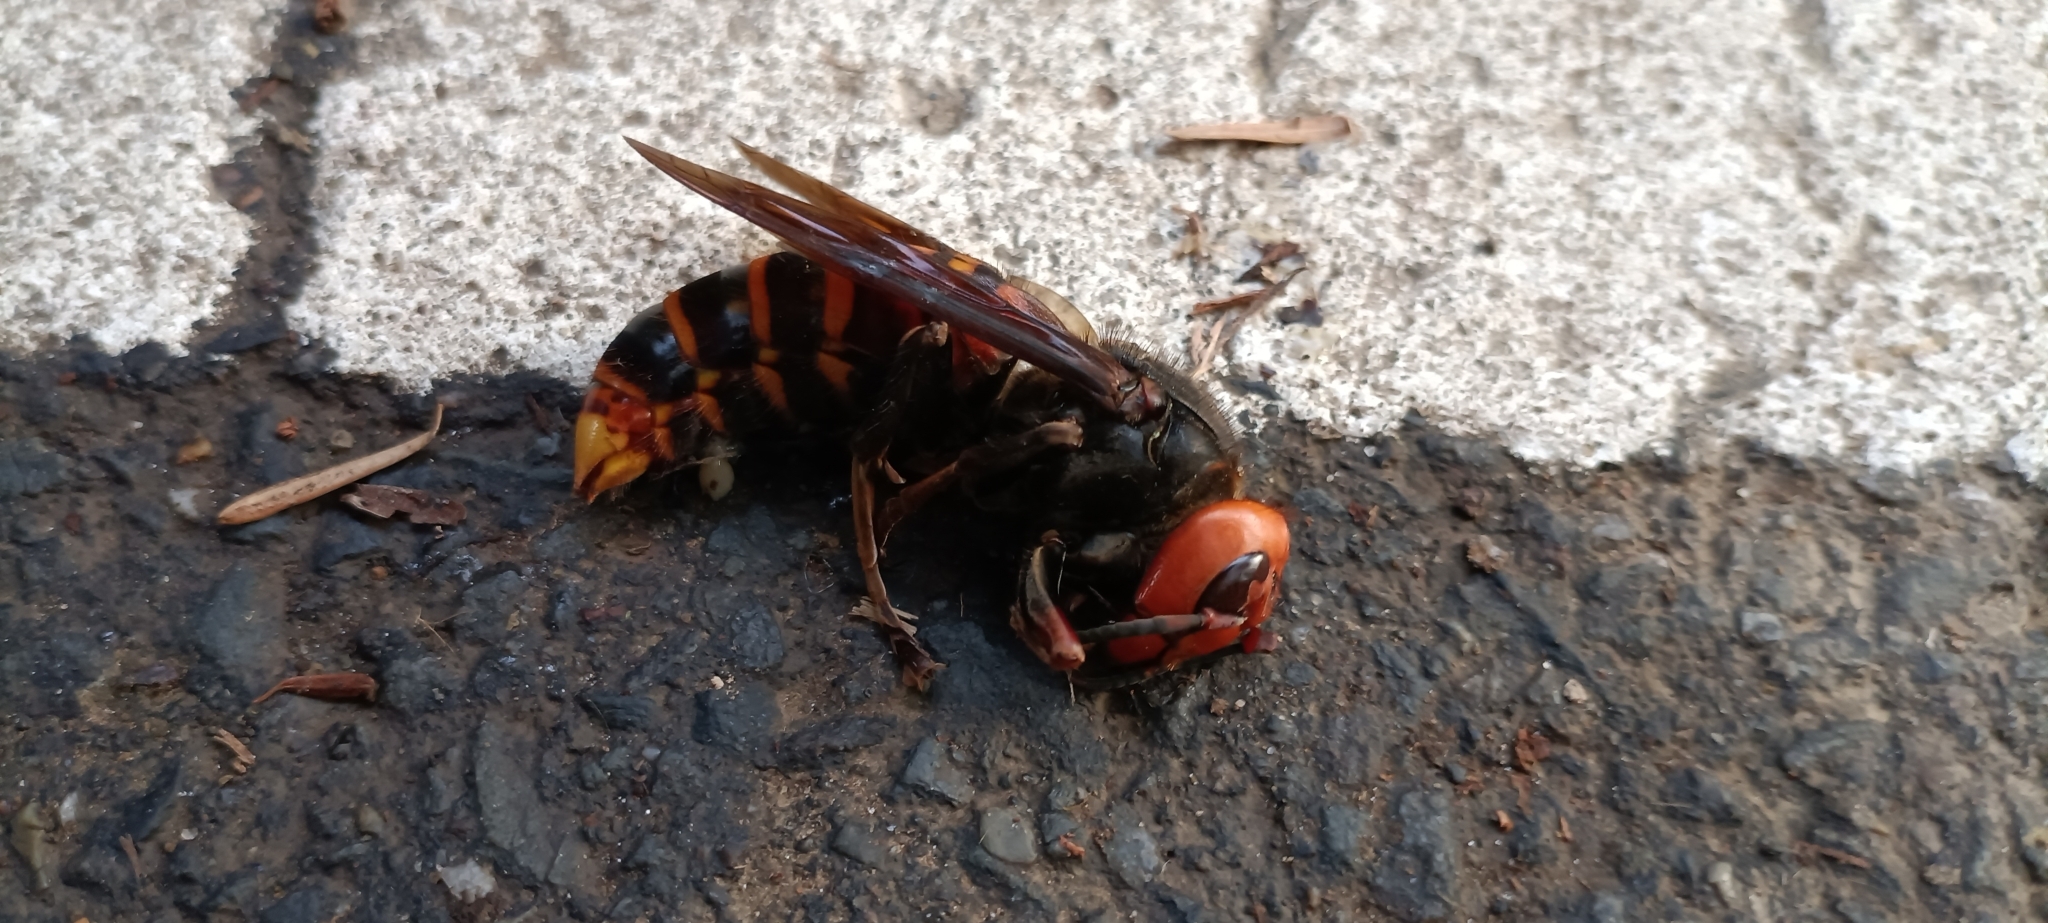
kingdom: Animalia
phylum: Arthropoda
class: Insecta
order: Hymenoptera
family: Vespidae
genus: Vespa
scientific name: Vespa mandarinia
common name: Asian giant hornet
